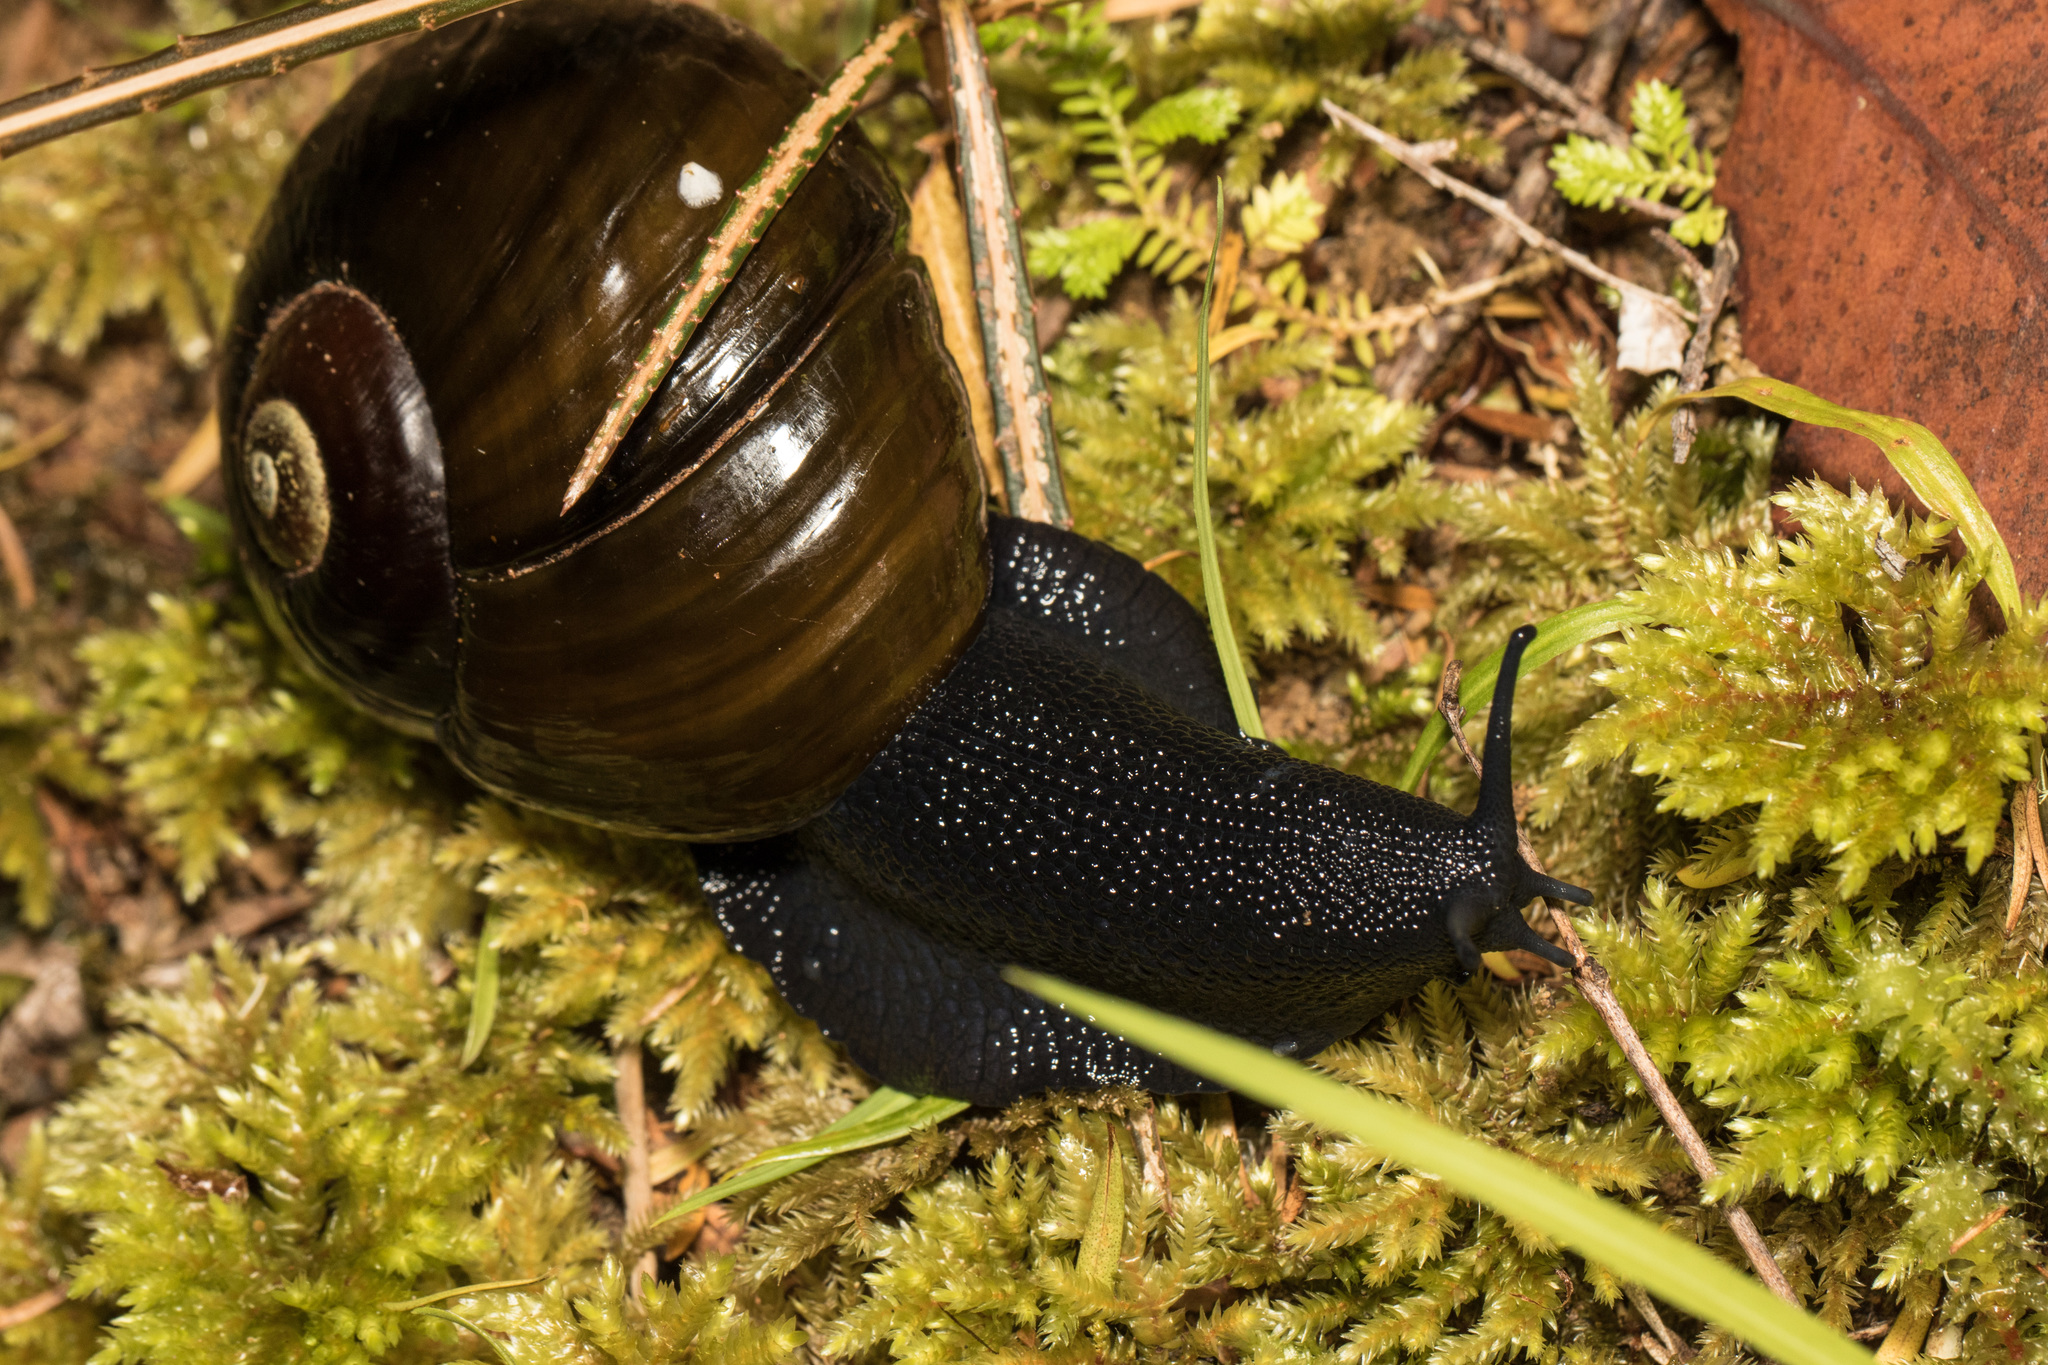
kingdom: Animalia
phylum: Mollusca
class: Gastropoda
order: Stylommatophora
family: Rhytididae
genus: Paryphanta
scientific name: Paryphanta busbyi
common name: Kauri snail
